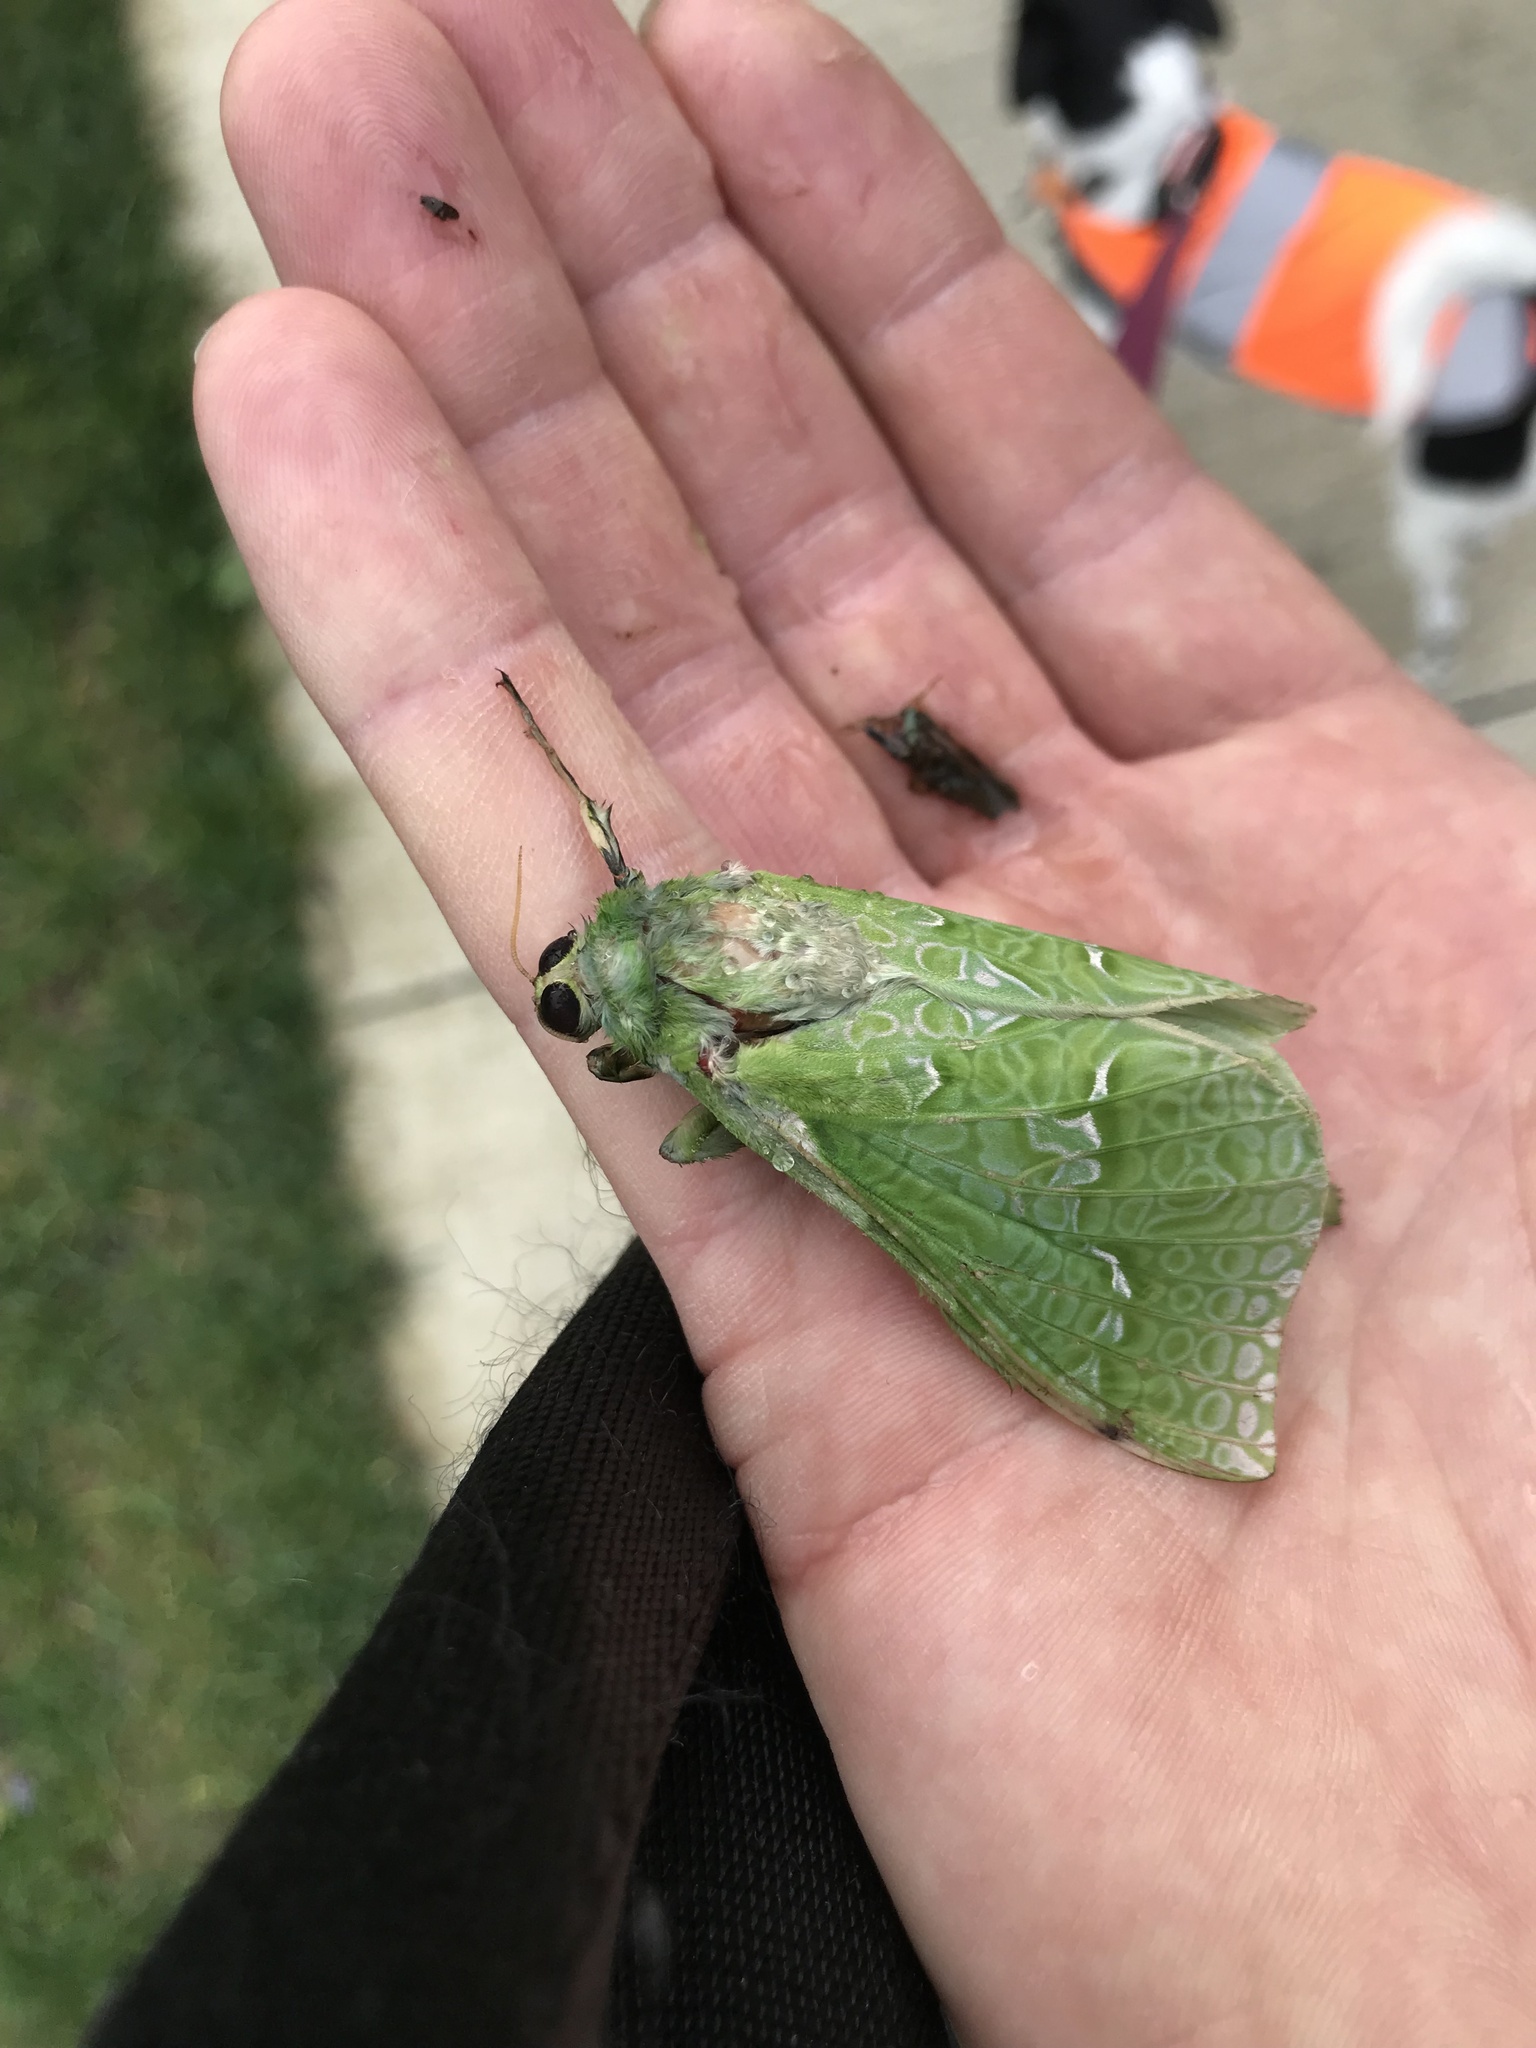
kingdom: Animalia
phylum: Arthropoda
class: Insecta
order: Lepidoptera
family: Hepialidae
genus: Aenetus
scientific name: Aenetus virescens
